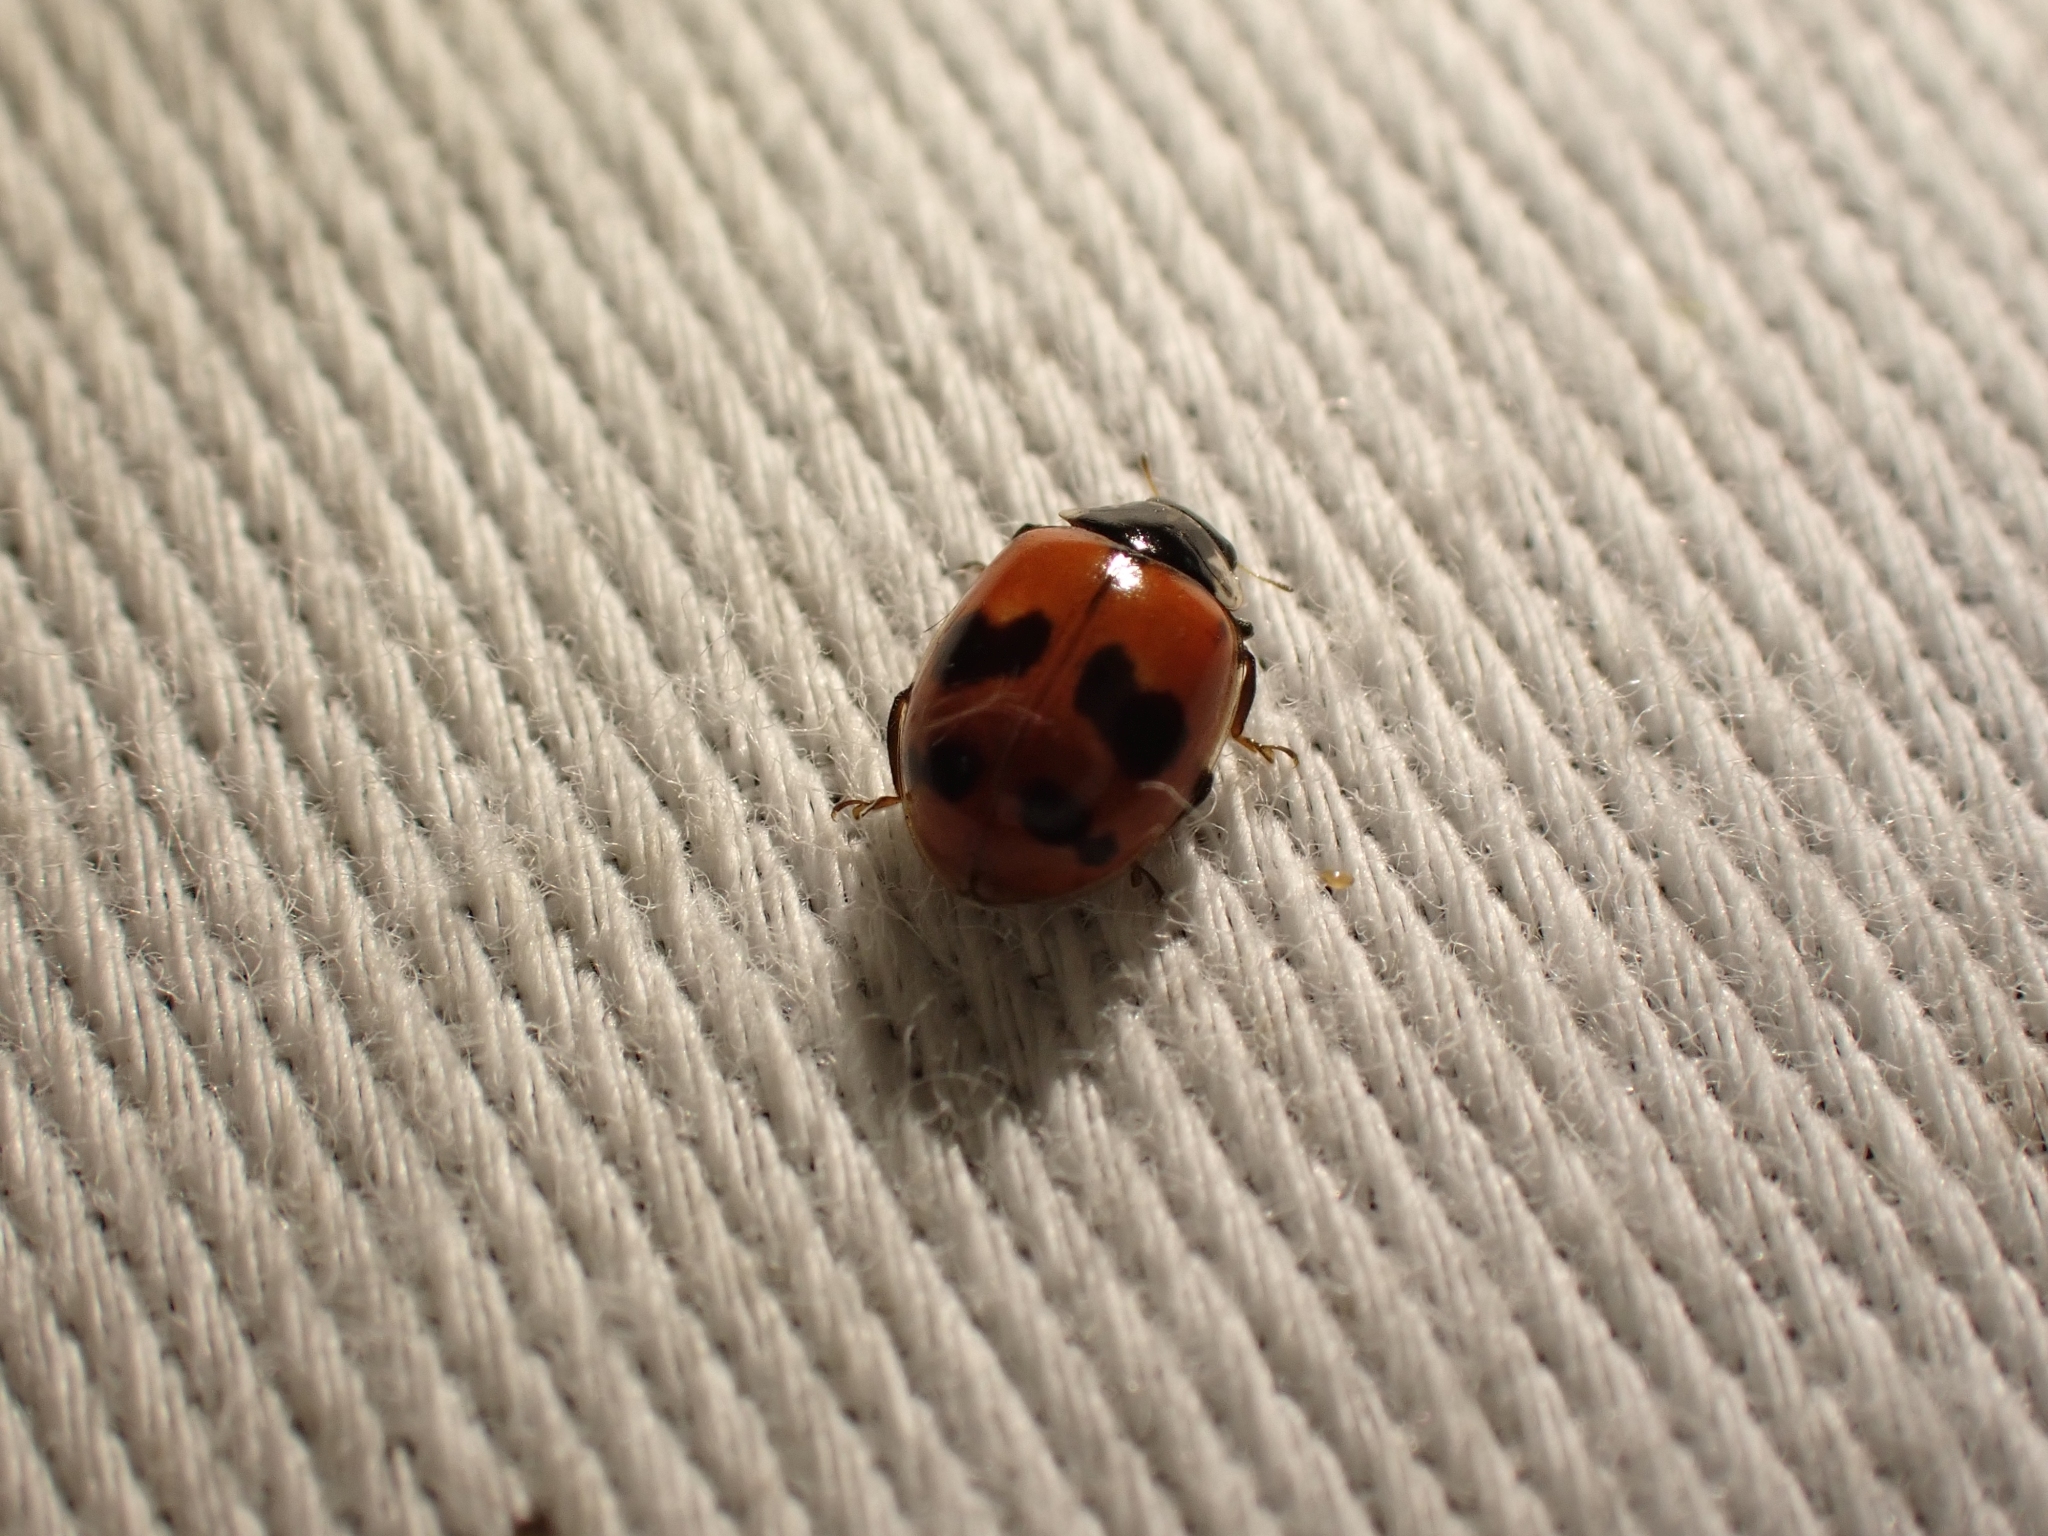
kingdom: Animalia
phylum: Arthropoda
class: Insecta
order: Coleoptera
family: Coccinellidae
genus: Adalia
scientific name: Adalia bipunctata
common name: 2-spot ladybird
